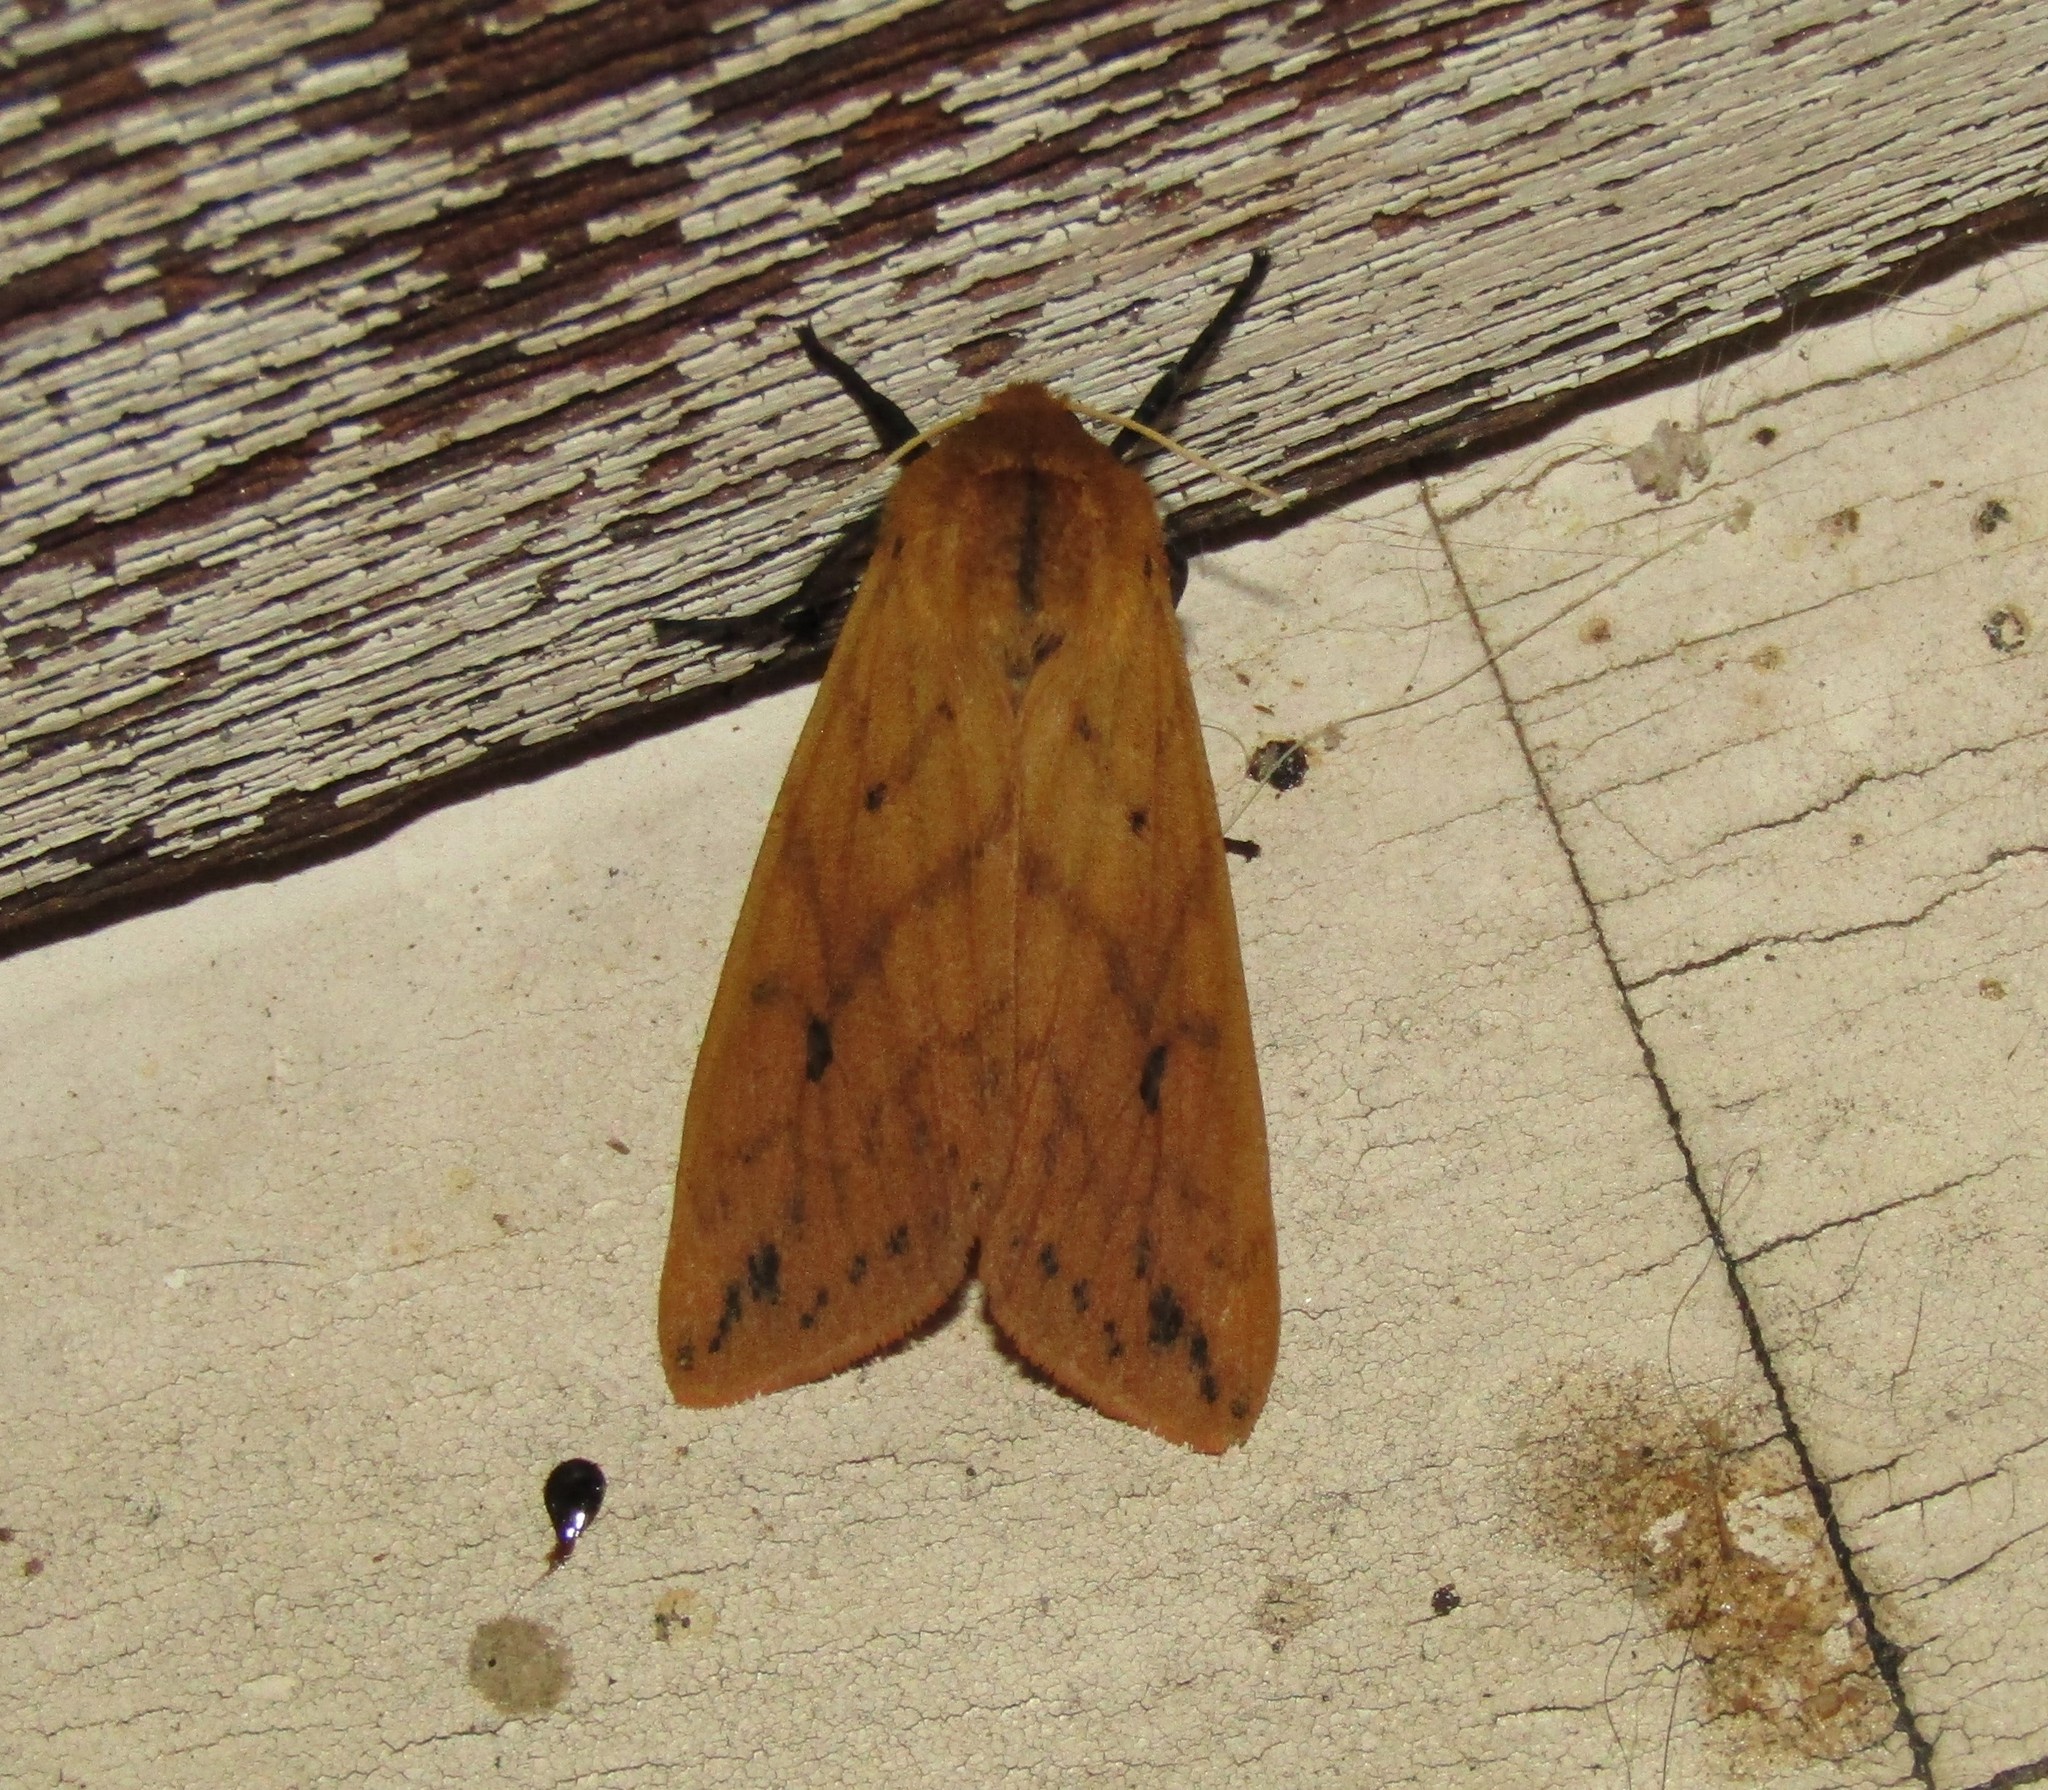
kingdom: Animalia
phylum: Arthropoda
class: Insecta
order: Lepidoptera
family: Erebidae
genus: Pyrrharctia
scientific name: Pyrrharctia isabella
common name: Isabella tiger moth
